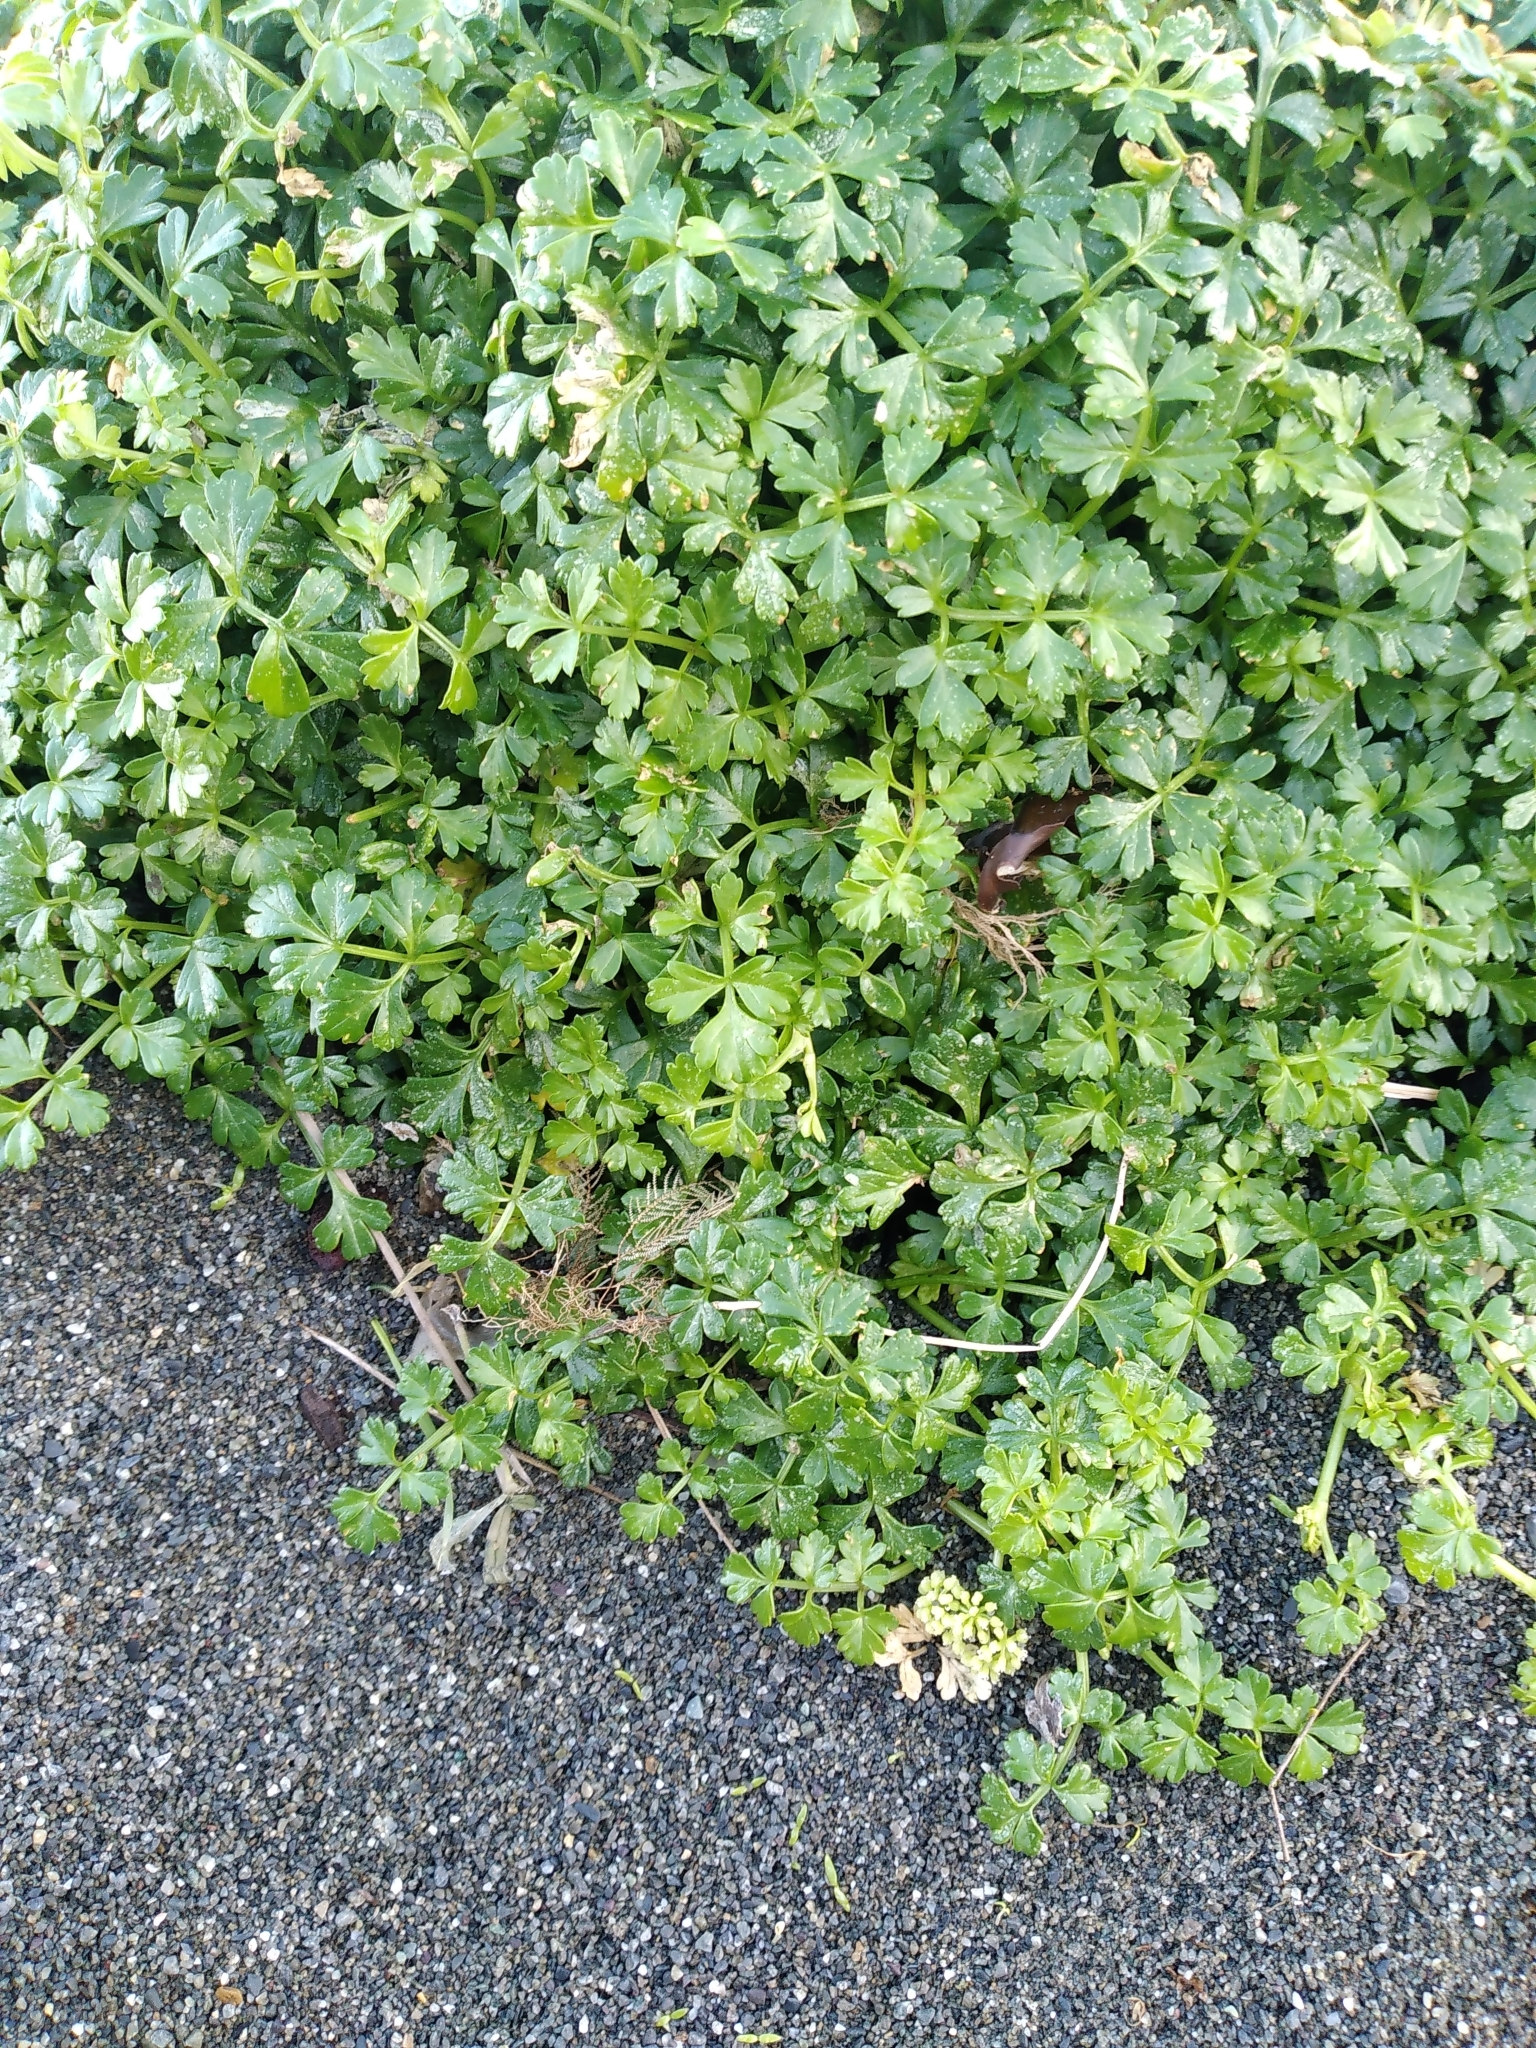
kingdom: Plantae
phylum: Tracheophyta
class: Magnoliopsida
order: Apiales
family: Apiaceae
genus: Apium
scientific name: Apium prostratum
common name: Prostrate marshwort
